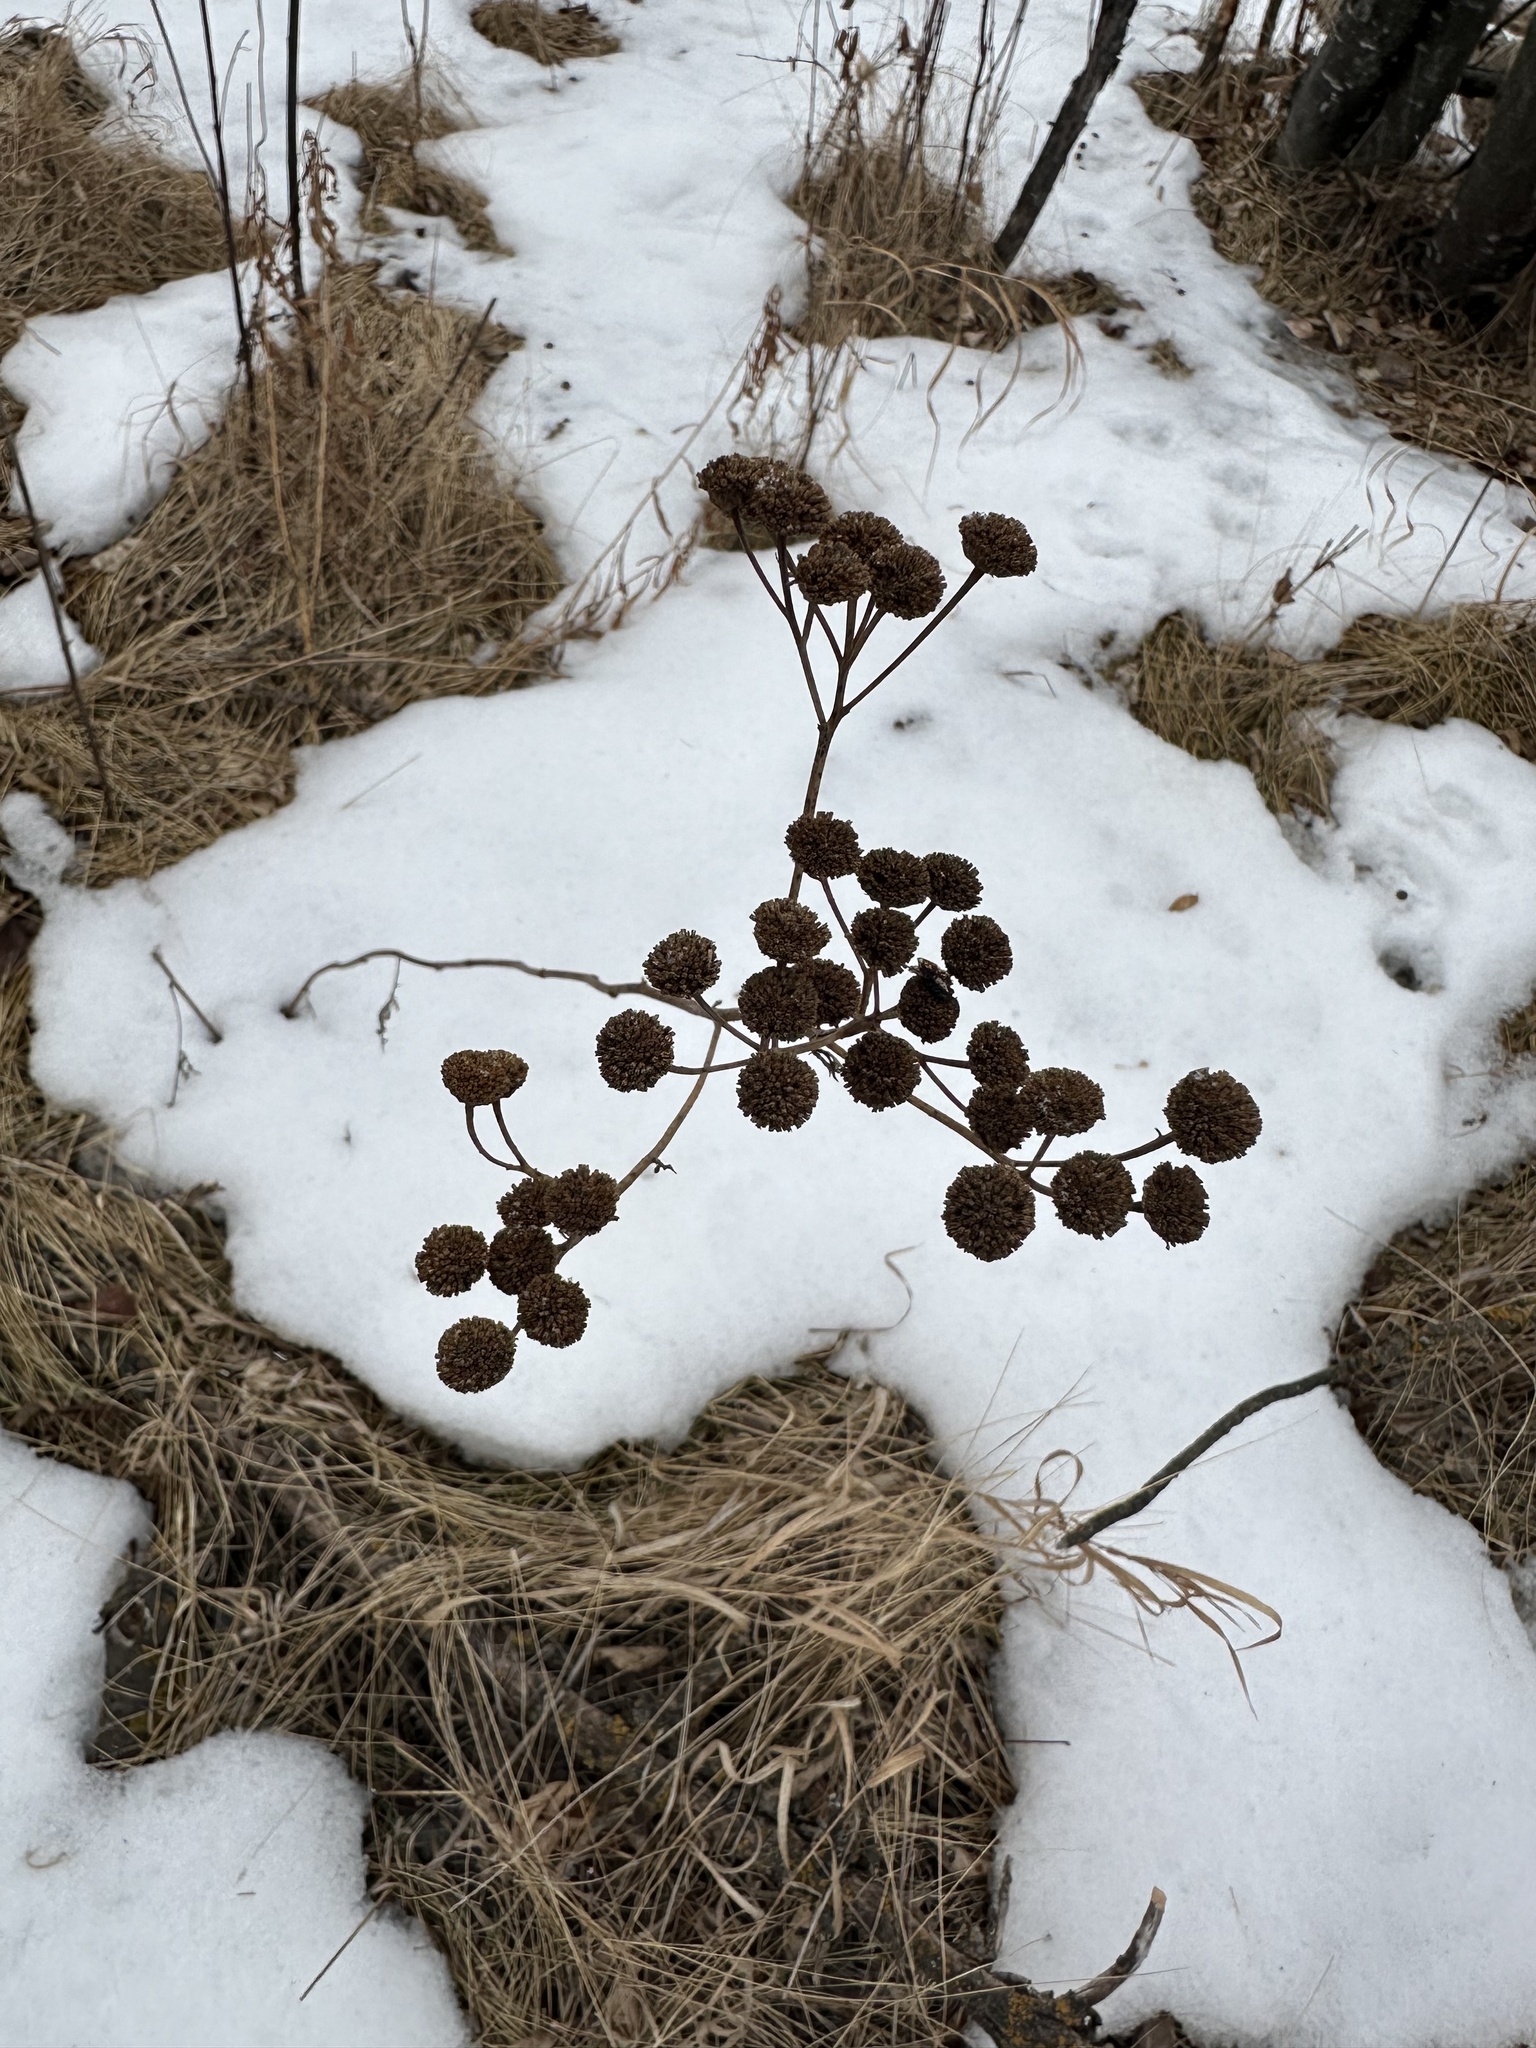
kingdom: Plantae
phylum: Tracheophyta
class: Magnoliopsida
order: Asterales
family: Asteraceae
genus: Tanacetum
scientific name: Tanacetum vulgare
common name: Common tansy
